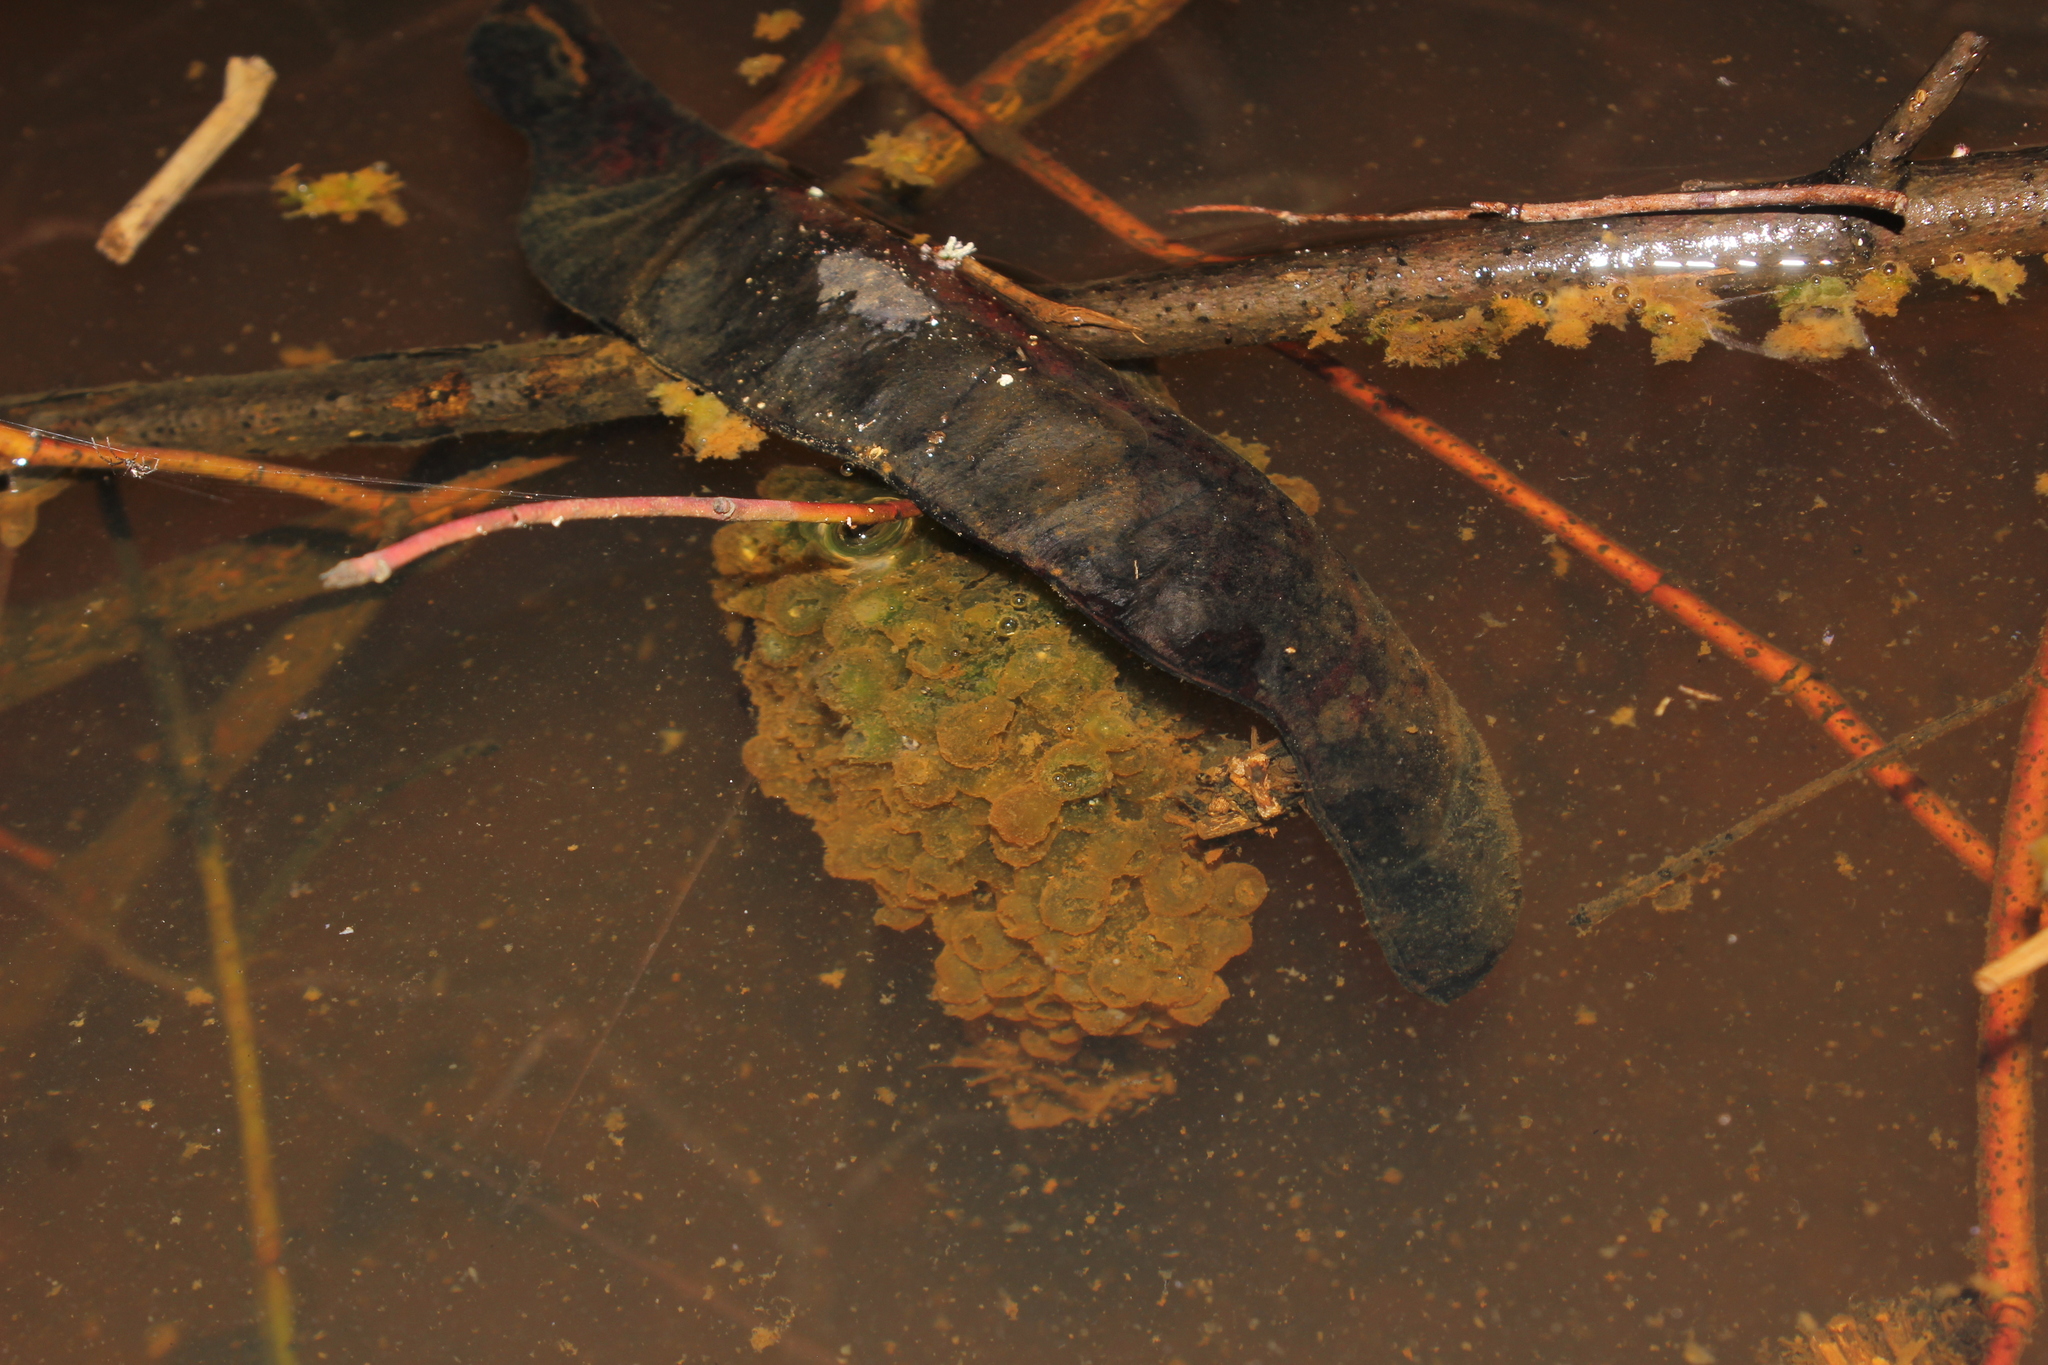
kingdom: Animalia
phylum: Chordata
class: Amphibia
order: Anura
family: Ranidae
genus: Lithobates
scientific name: Lithobates sylvaticus
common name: Wood frog
